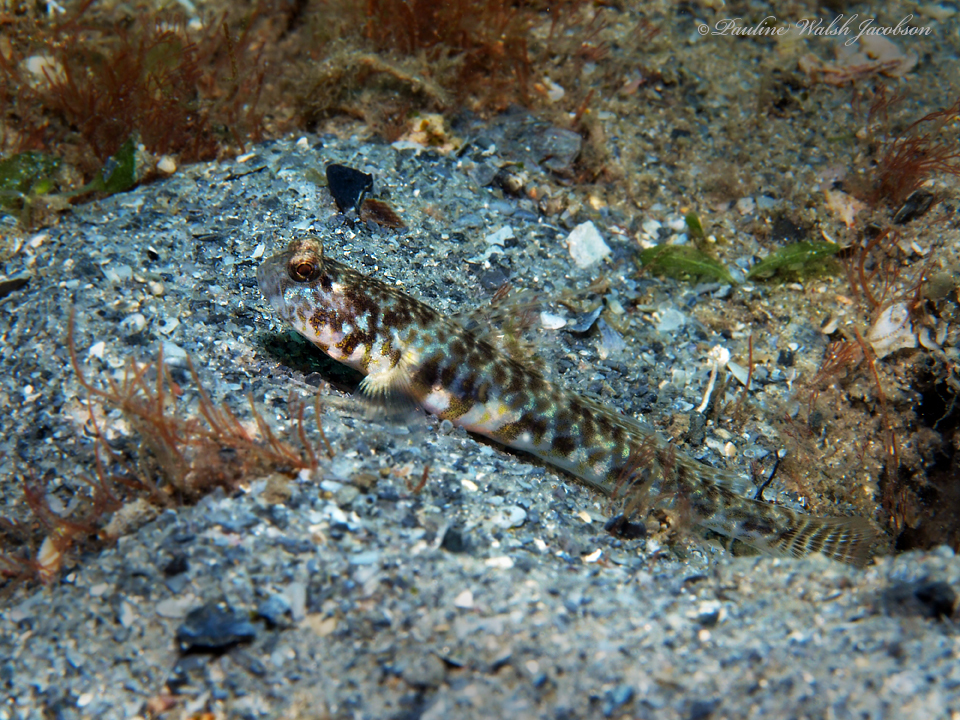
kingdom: Animalia
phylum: Chordata
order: Perciformes
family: Gobiidae
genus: Nes
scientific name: Nes longus
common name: Orangespotted goby
